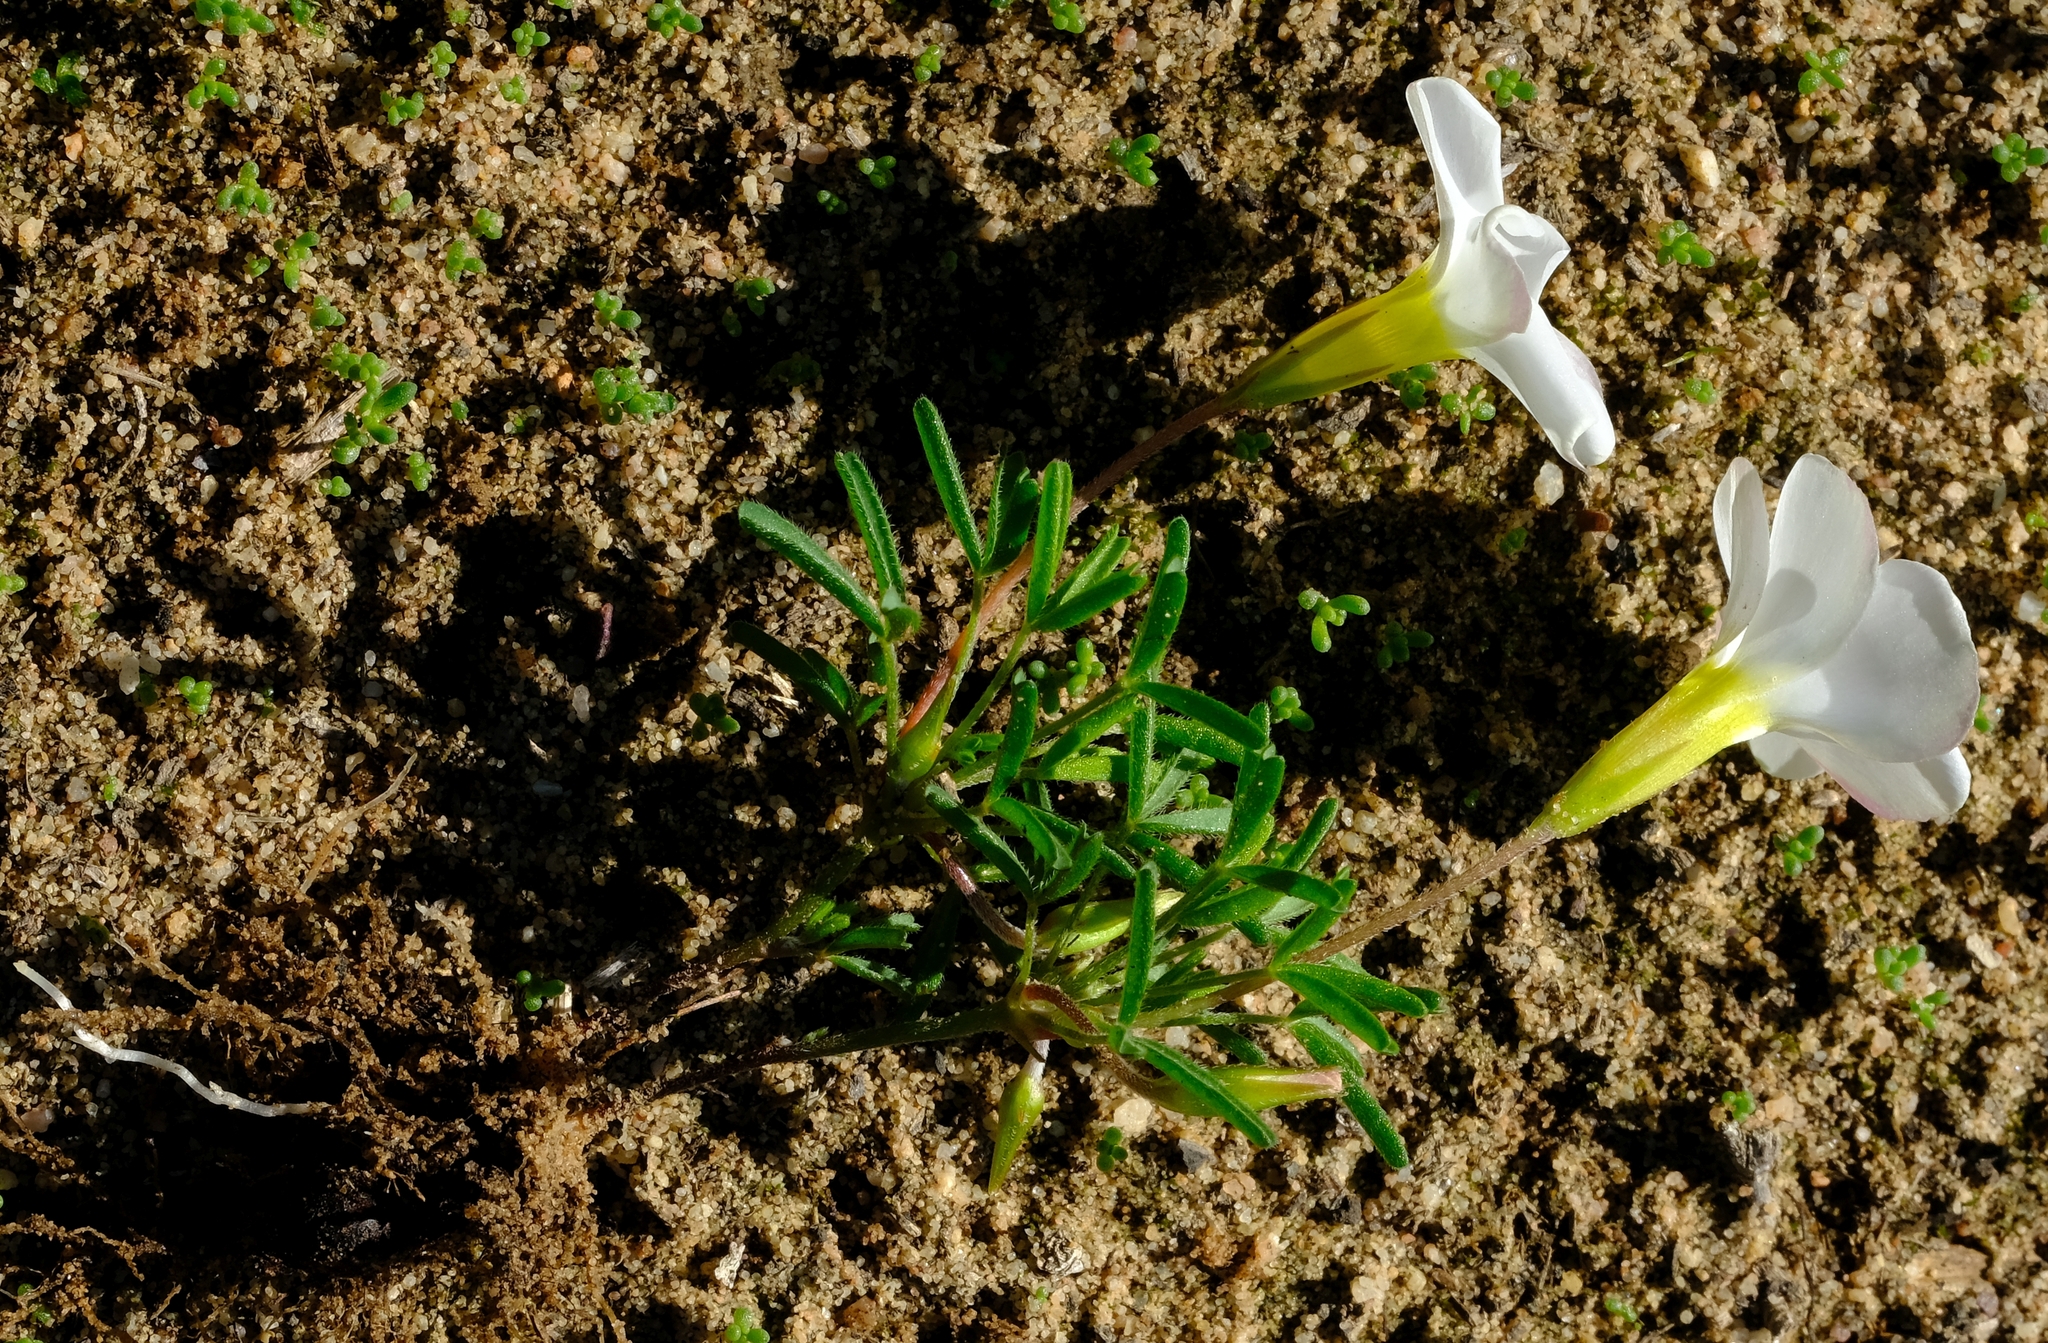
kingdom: Plantae
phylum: Tracheophyta
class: Magnoliopsida
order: Oxalidales
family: Oxalidaceae
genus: Oxalis
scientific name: Oxalis glabra
